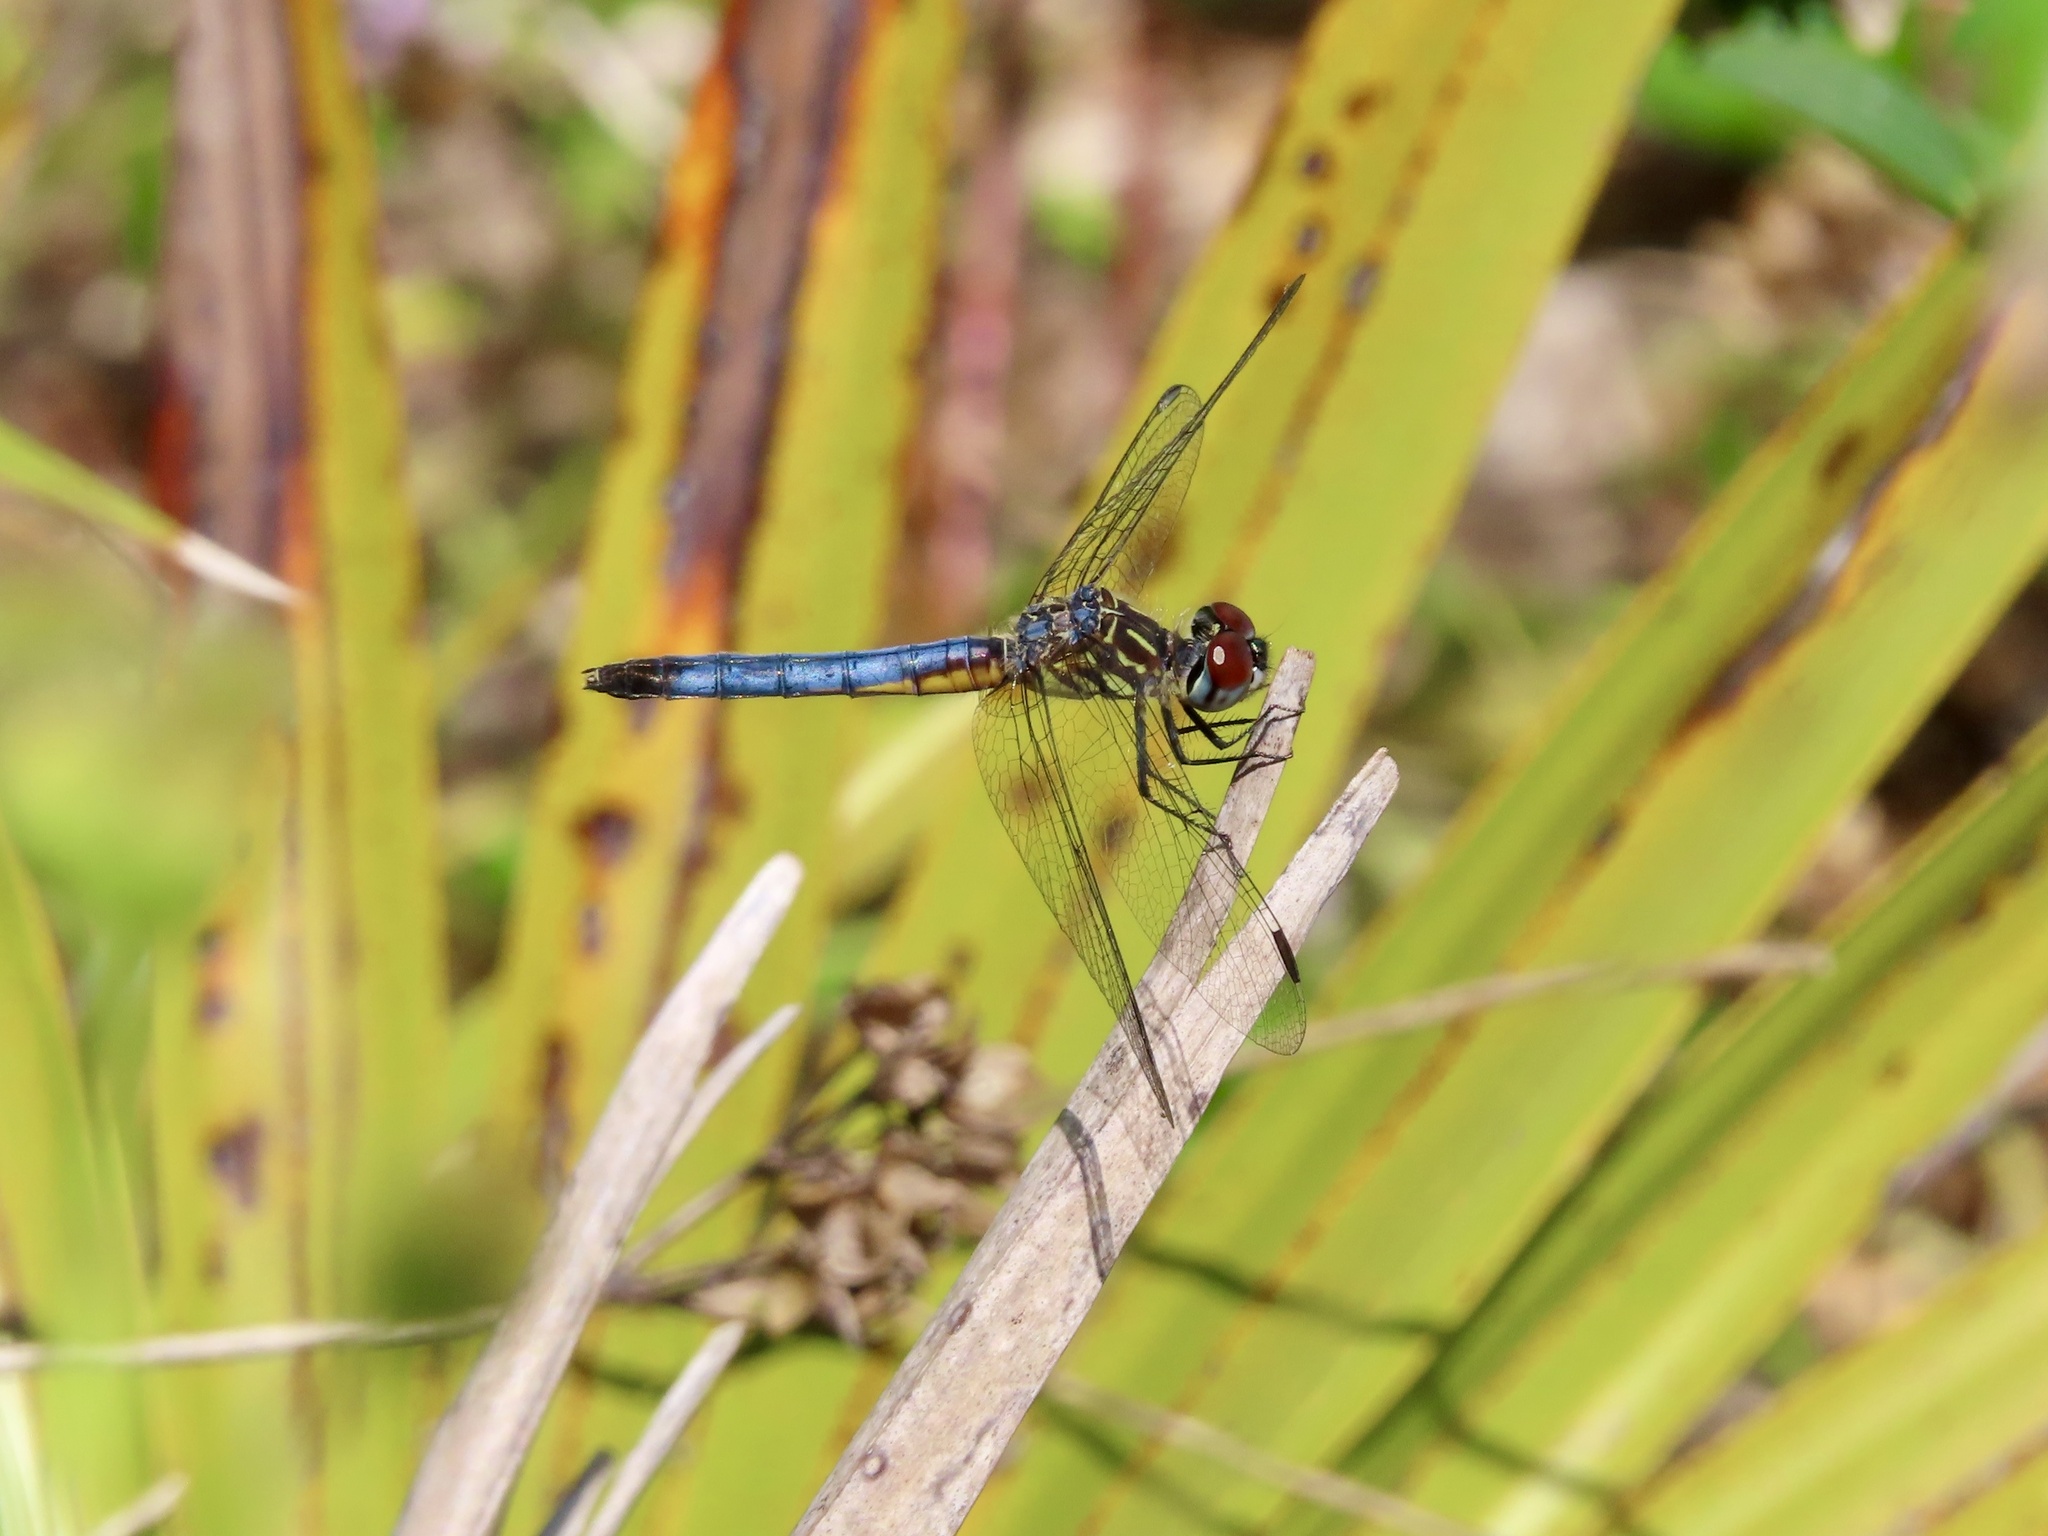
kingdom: Animalia
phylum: Arthropoda
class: Insecta
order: Odonata
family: Libellulidae
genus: Pachydiplax
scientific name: Pachydiplax longipennis
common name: Blue dasher
